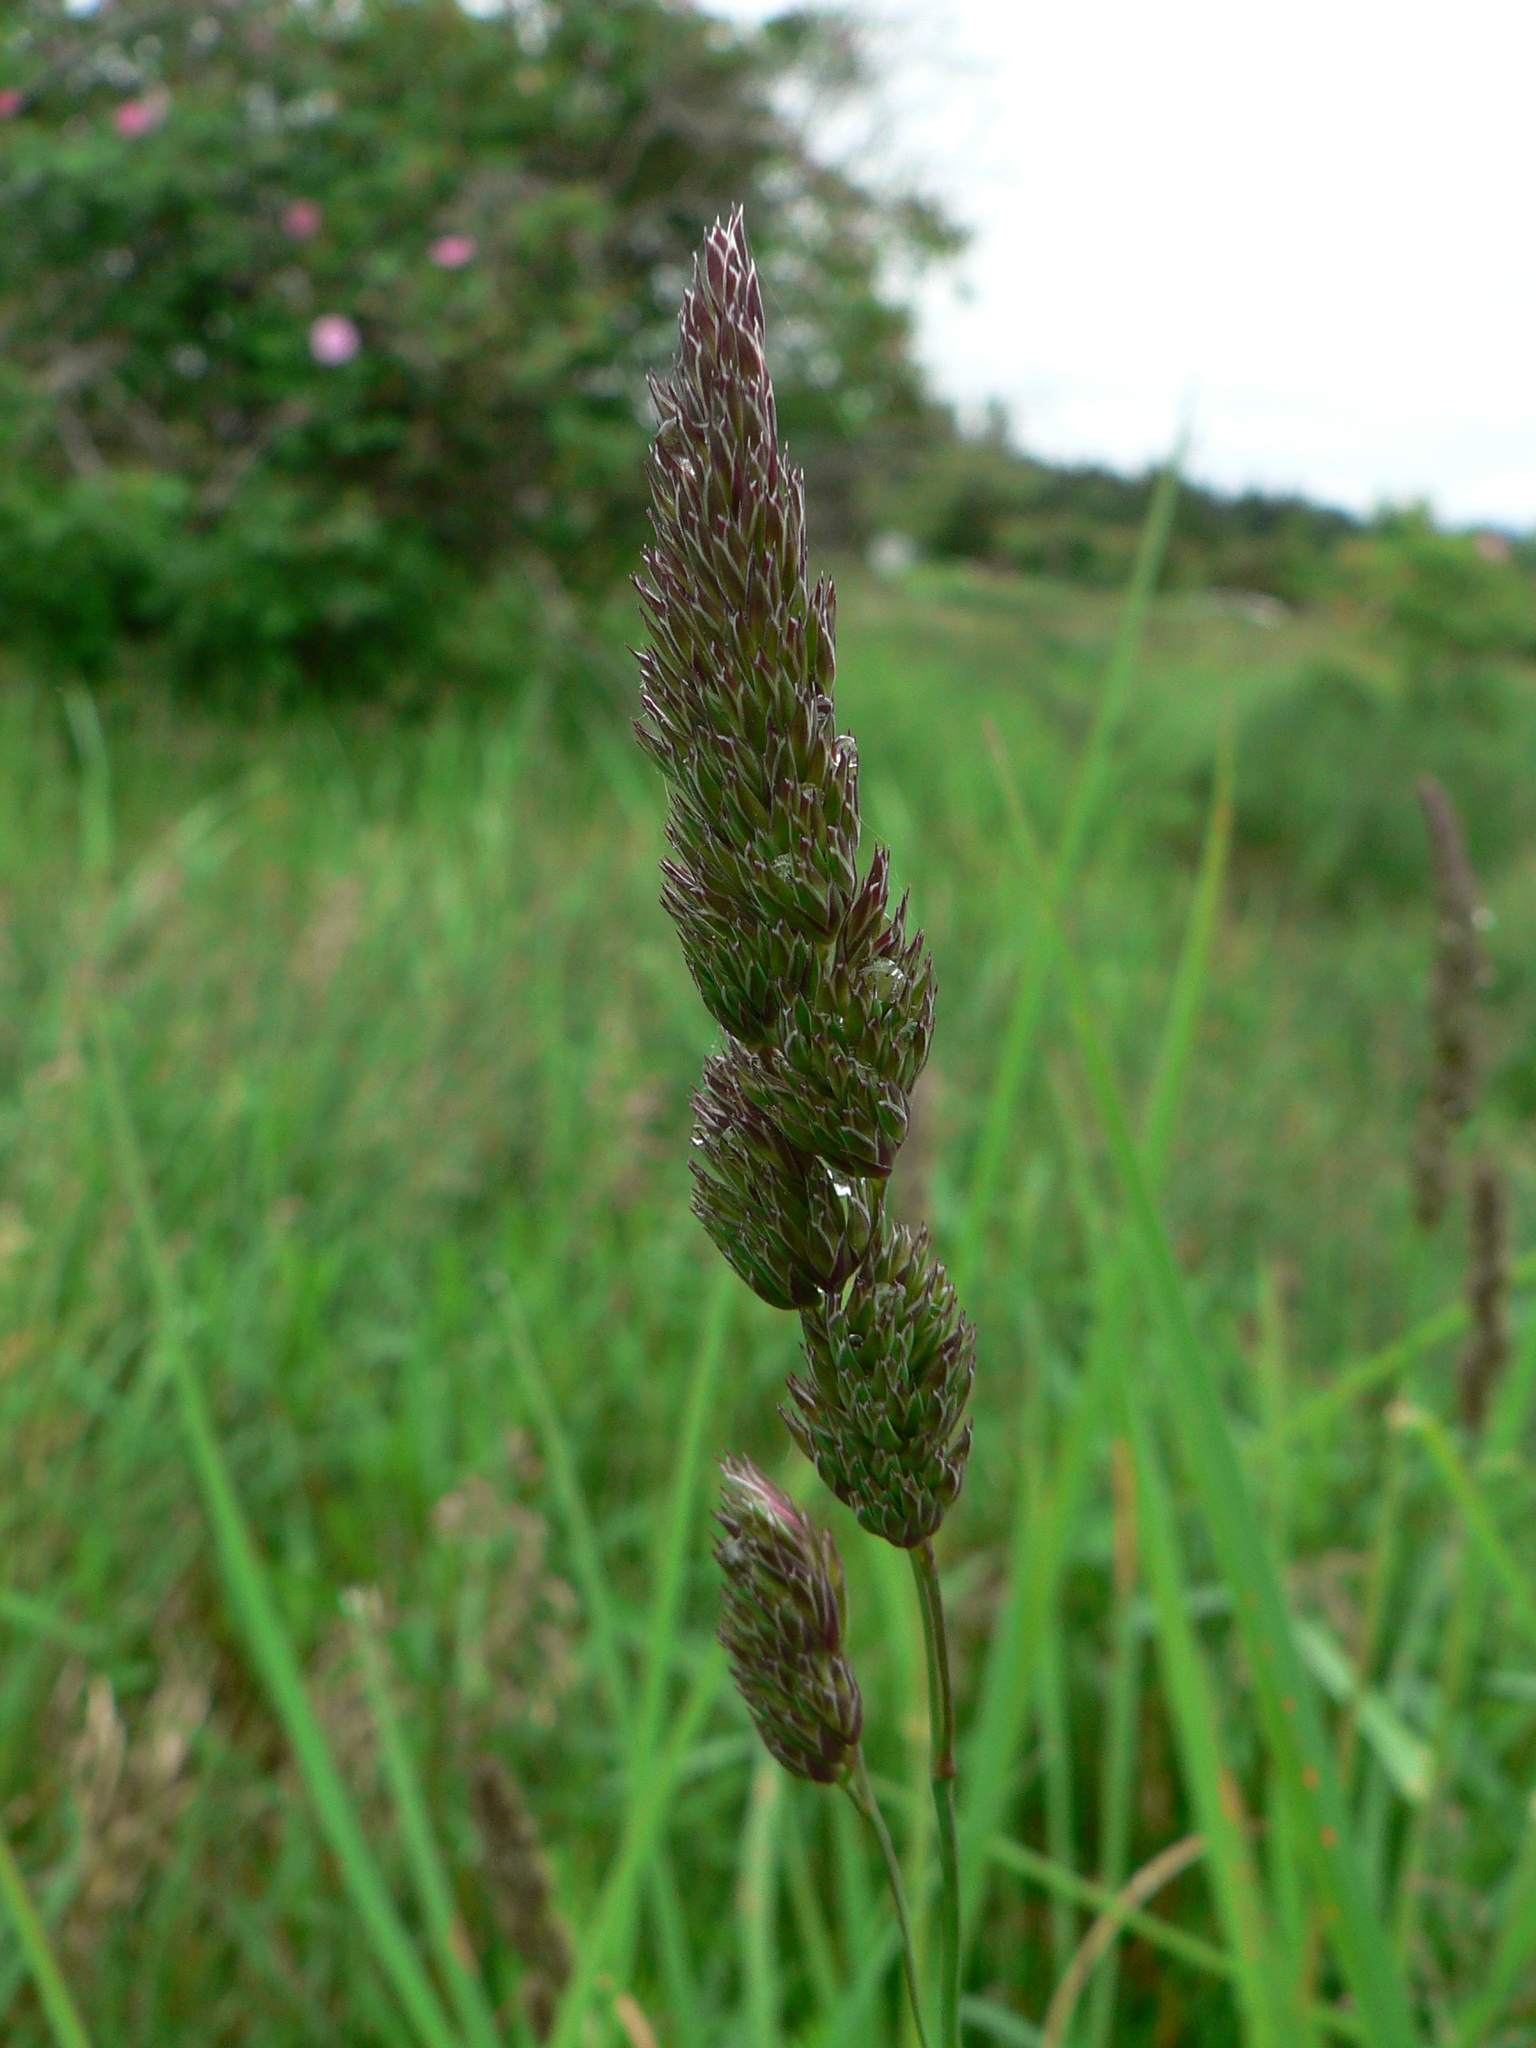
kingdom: Plantae
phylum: Tracheophyta
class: Liliopsida
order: Poales
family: Poaceae
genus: Dactylis
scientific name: Dactylis glomerata
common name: Orchardgrass
